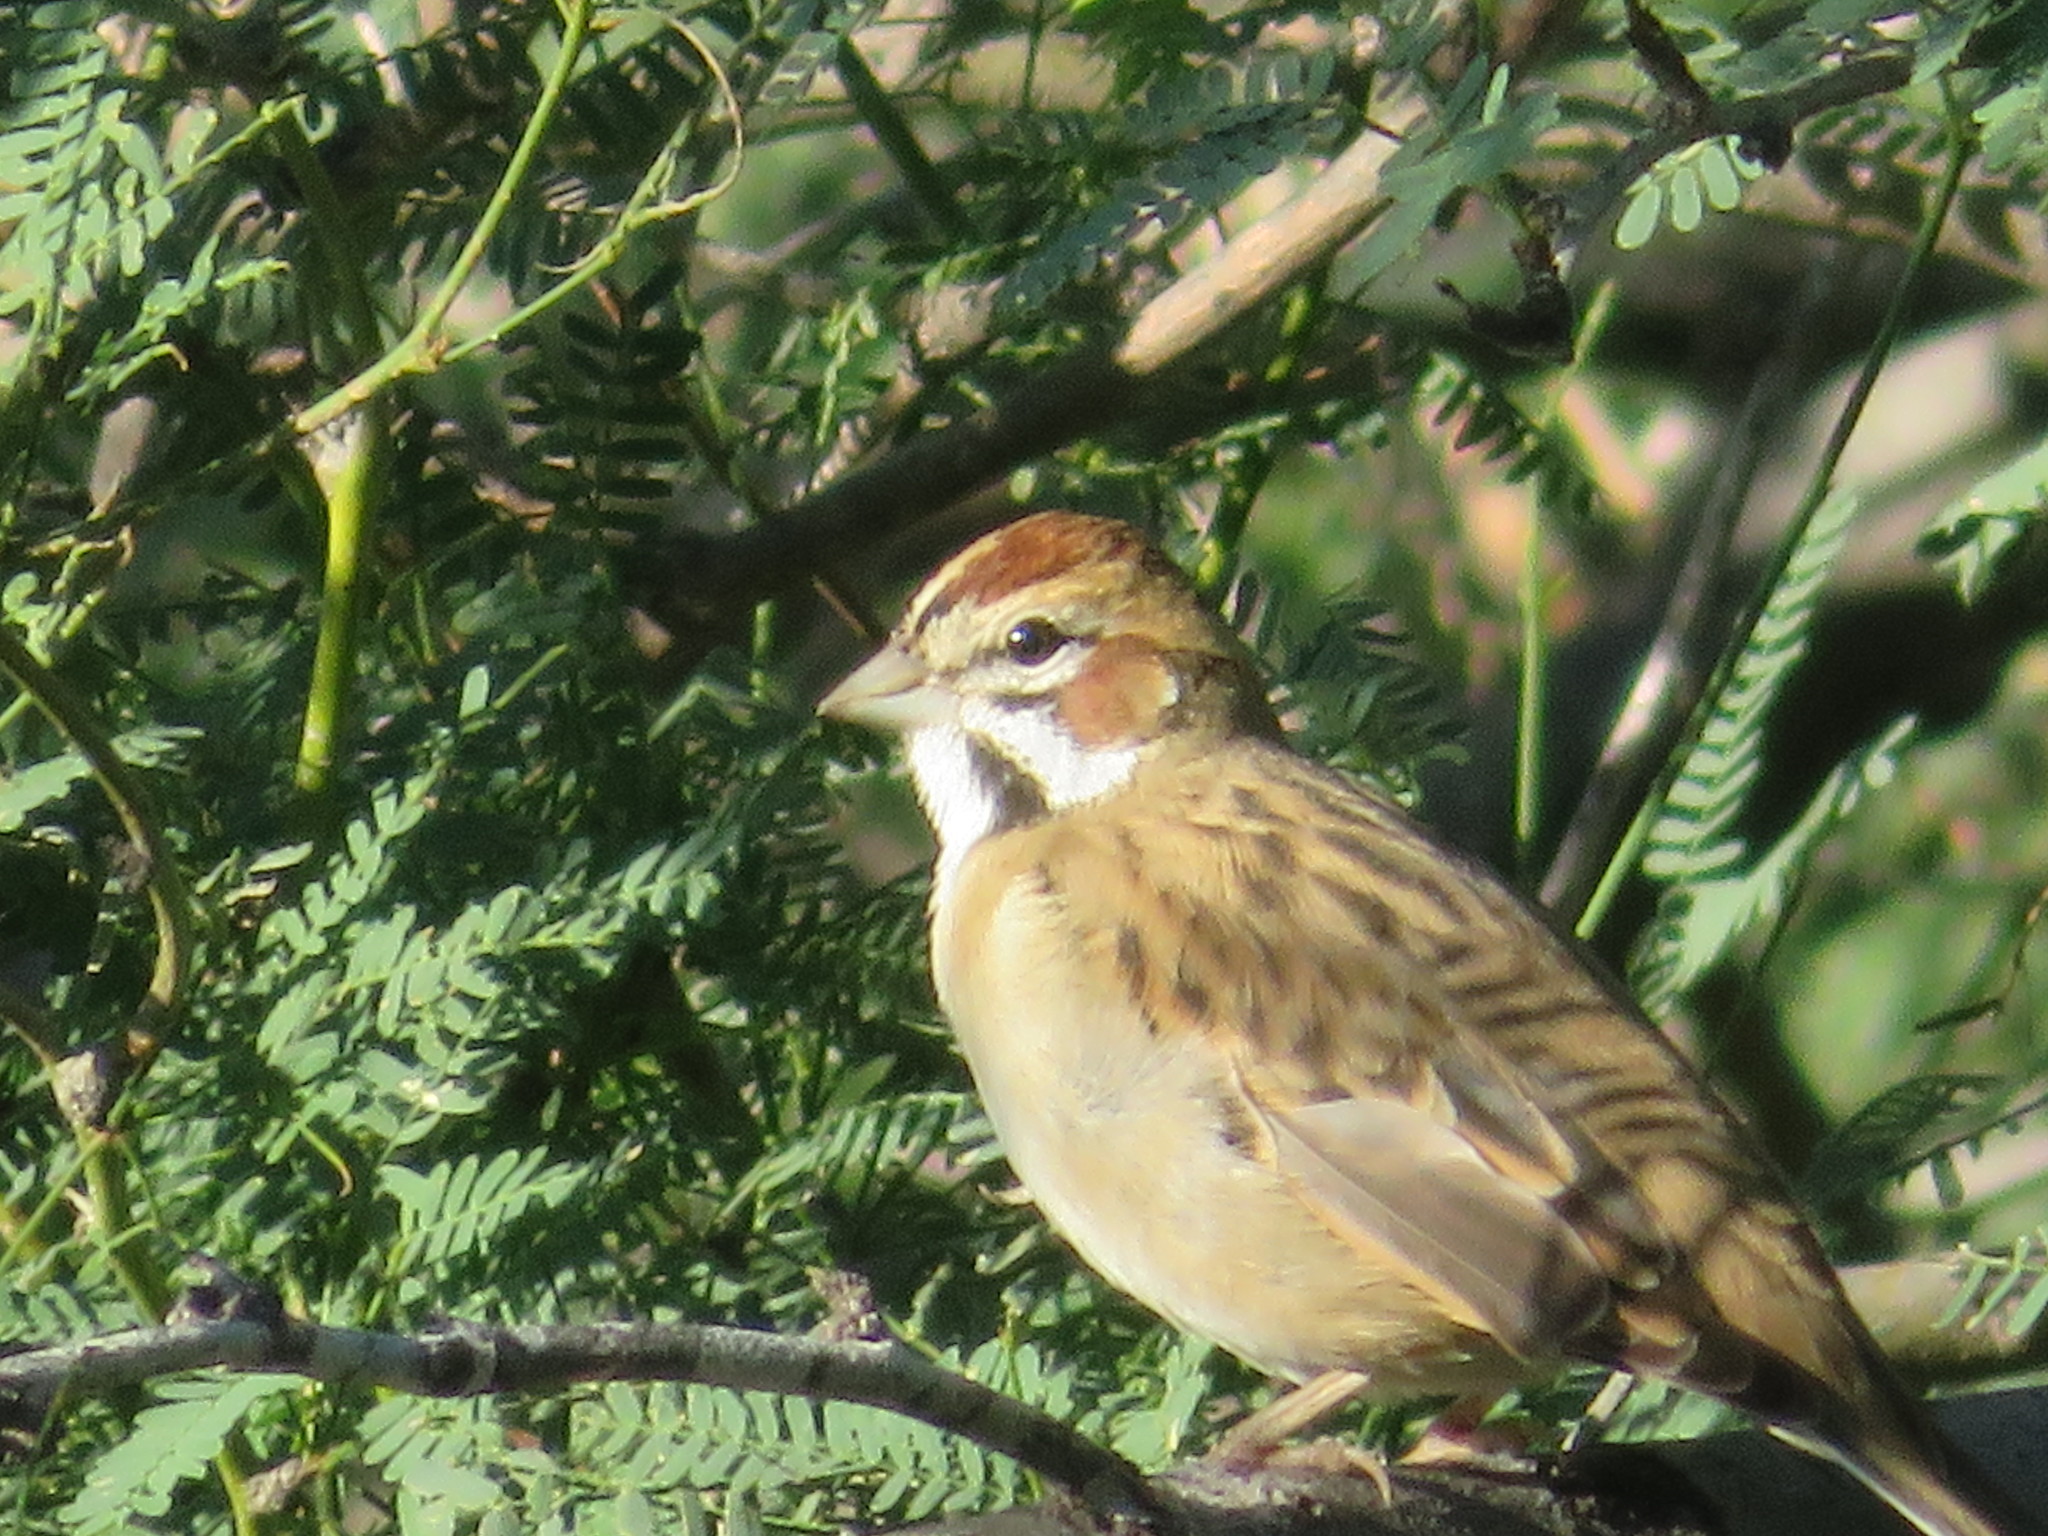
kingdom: Animalia
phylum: Chordata
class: Aves
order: Passeriformes
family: Passerellidae
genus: Chondestes
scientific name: Chondestes grammacus
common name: Lark sparrow
